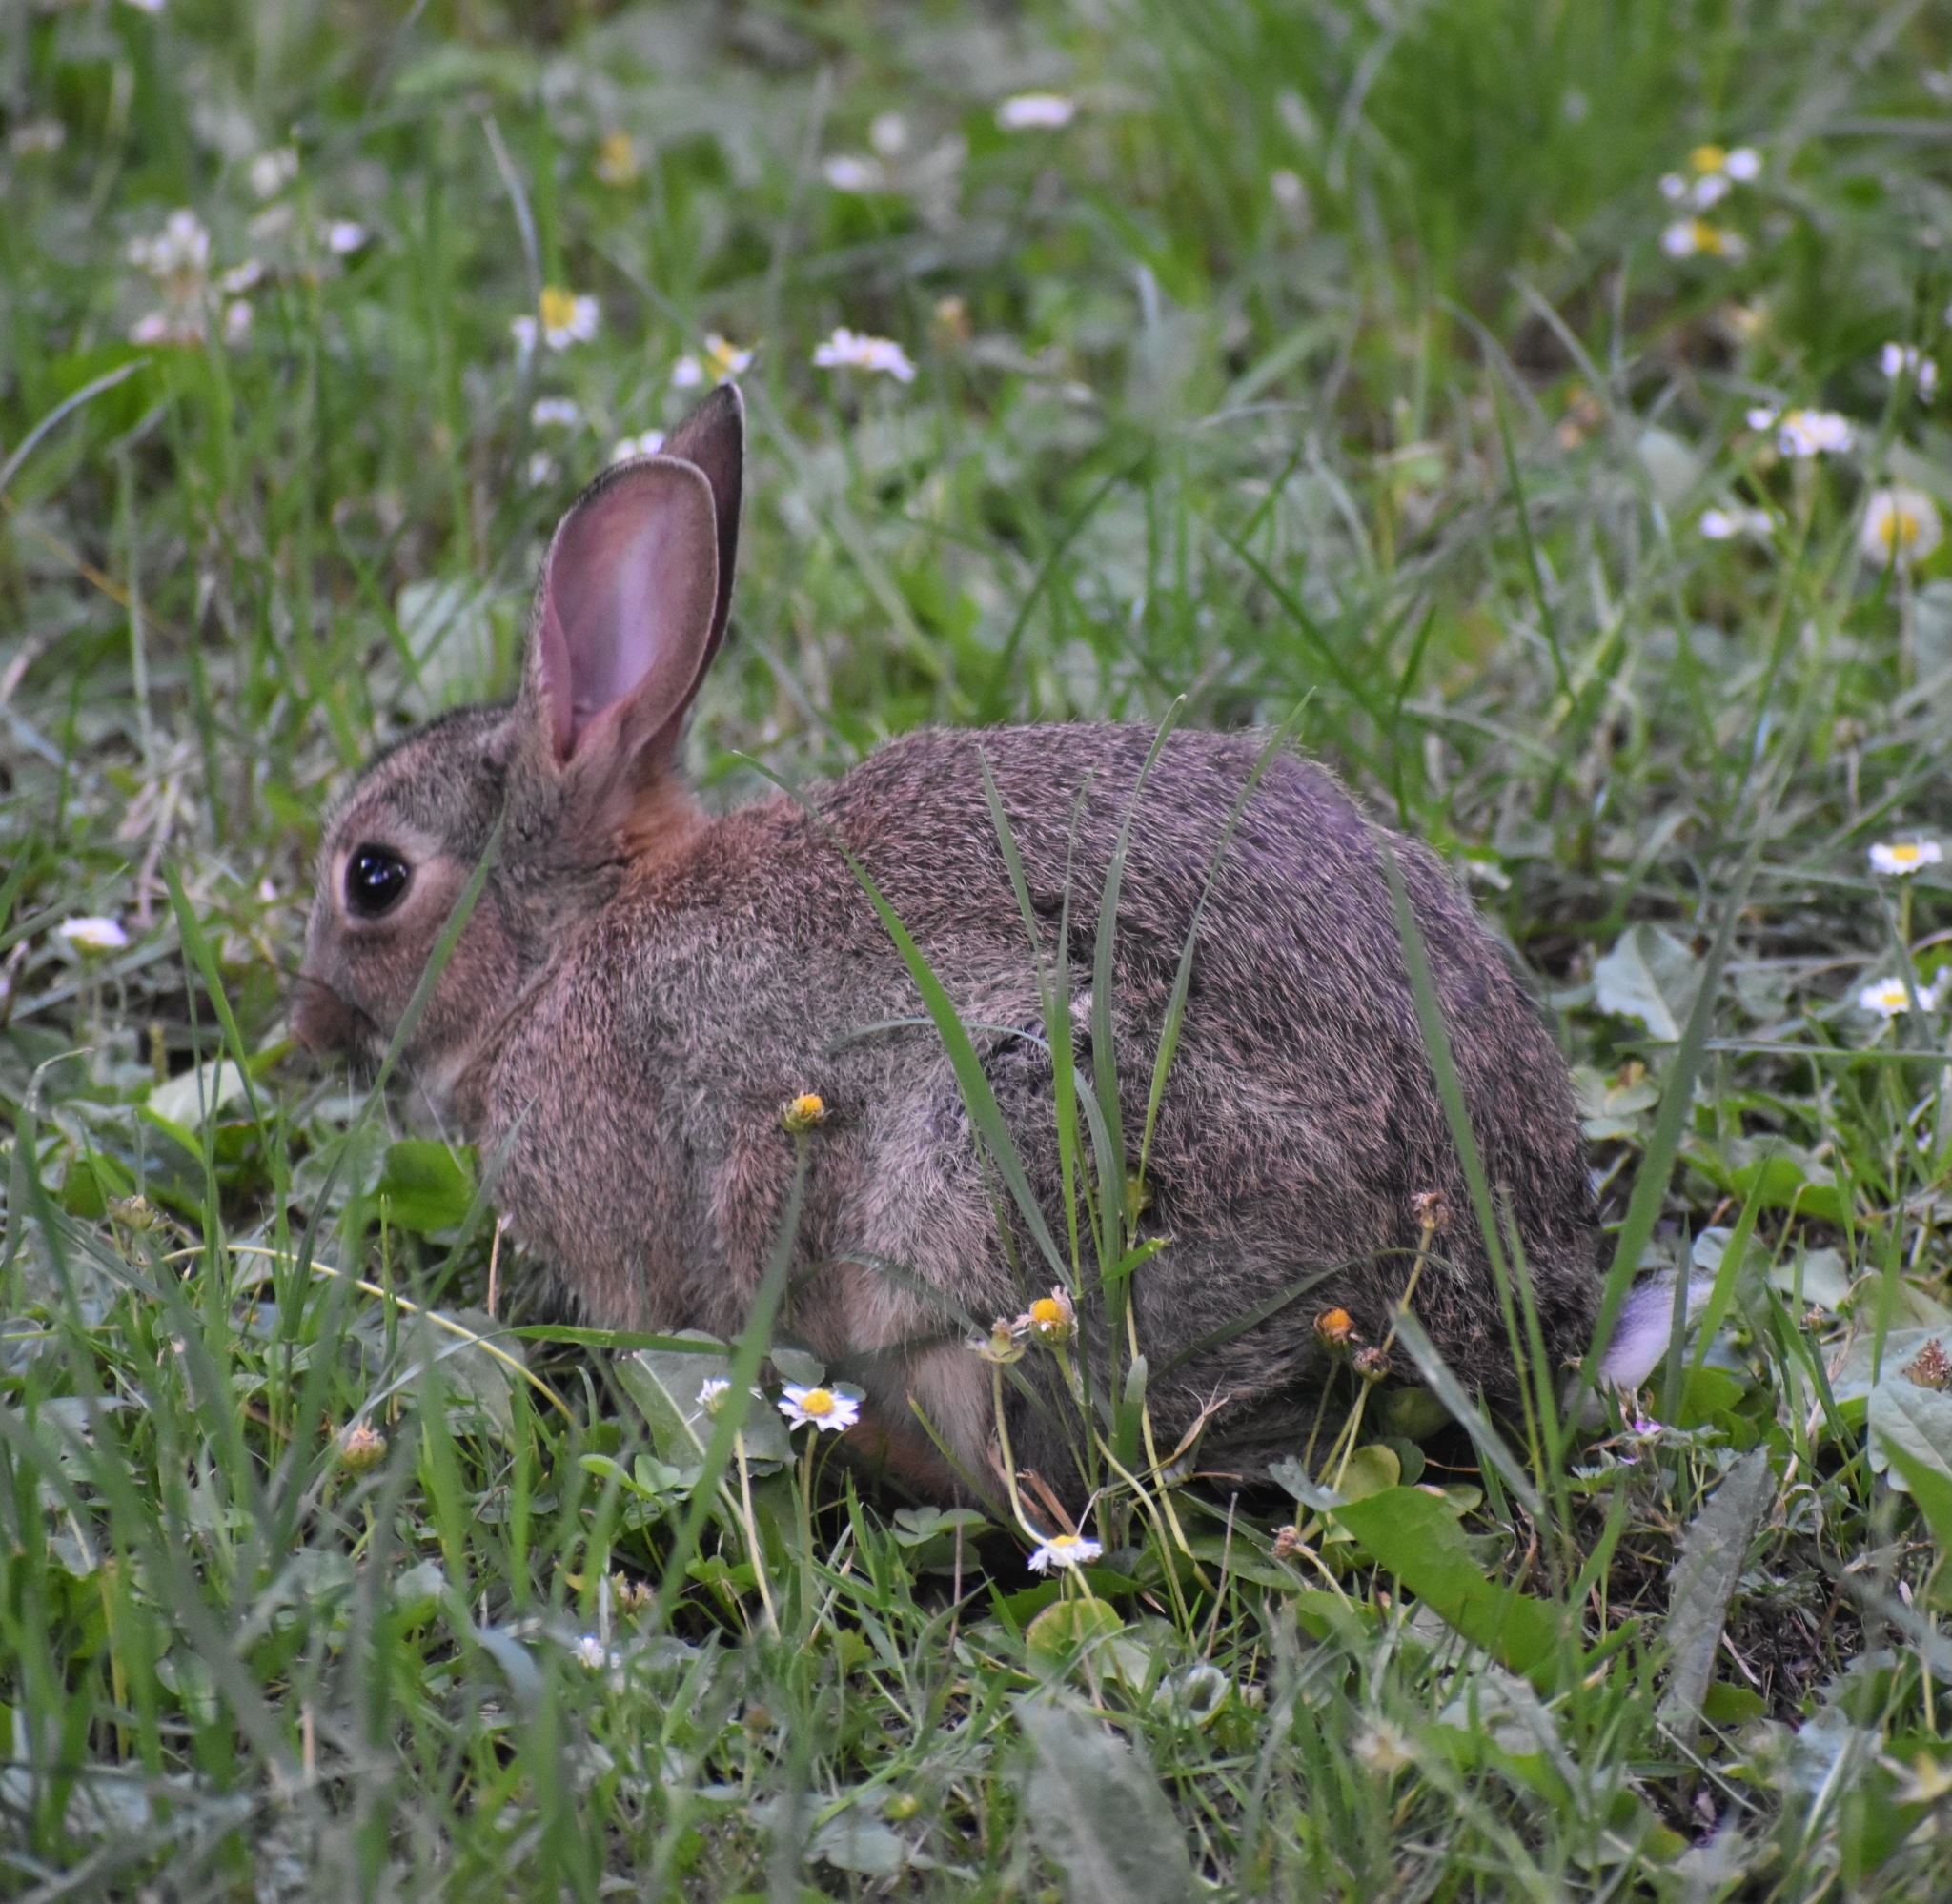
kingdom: Animalia
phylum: Chordata
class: Mammalia
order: Lagomorpha
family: Leporidae
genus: Oryctolagus
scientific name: Oryctolagus cuniculus
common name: European rabbit
